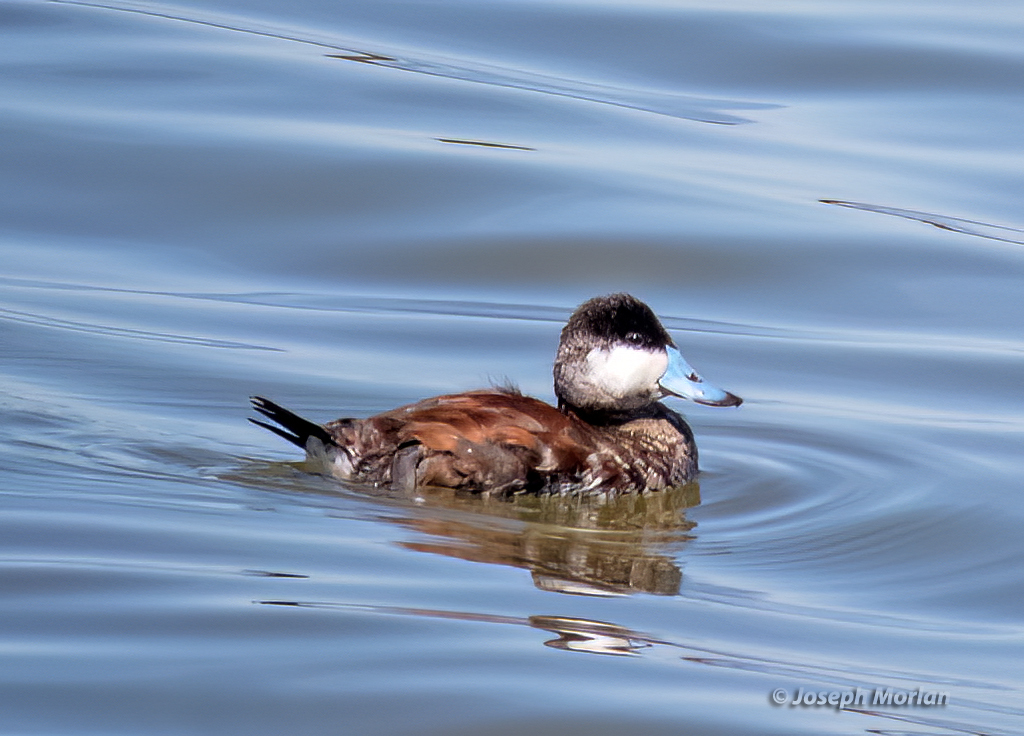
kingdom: Animalia
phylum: Chordata
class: Aves
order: Anseriformes
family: Anatidae
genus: Oxyura
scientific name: Oxyura jamaicensis
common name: Ruddy duck
